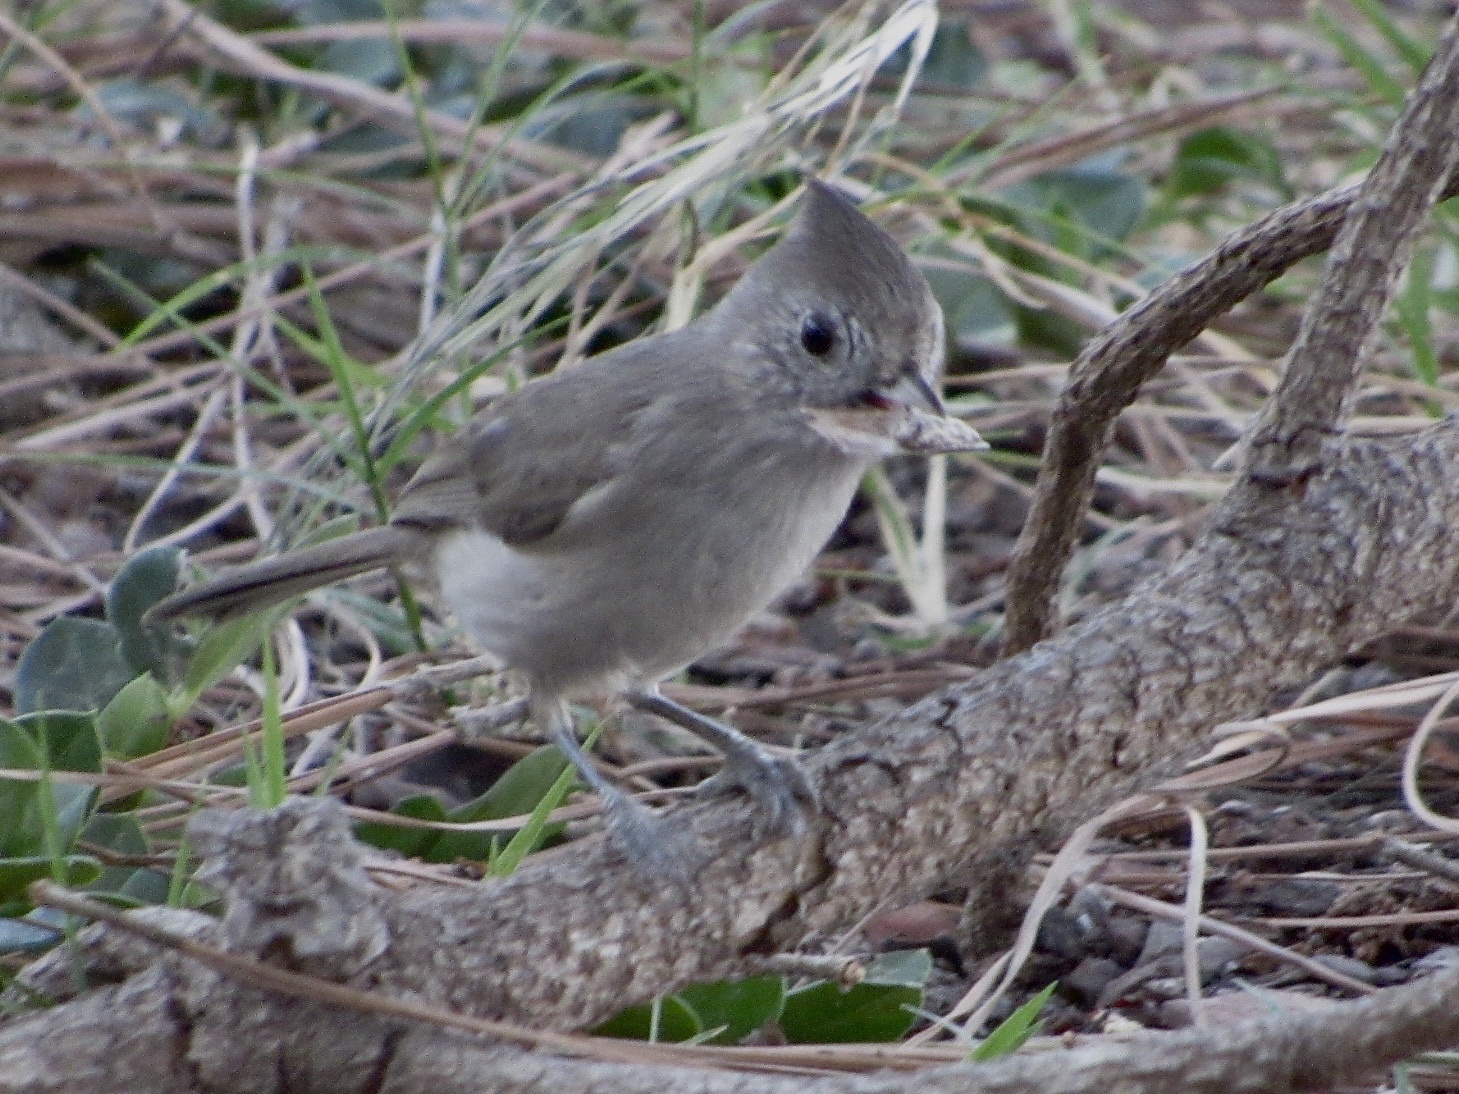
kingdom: Animalia
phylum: Chordata
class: Aves
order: Passeriformes
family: Paridae
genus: Baeolophus
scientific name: Baeolophus inornatus
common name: Oak titmouse
